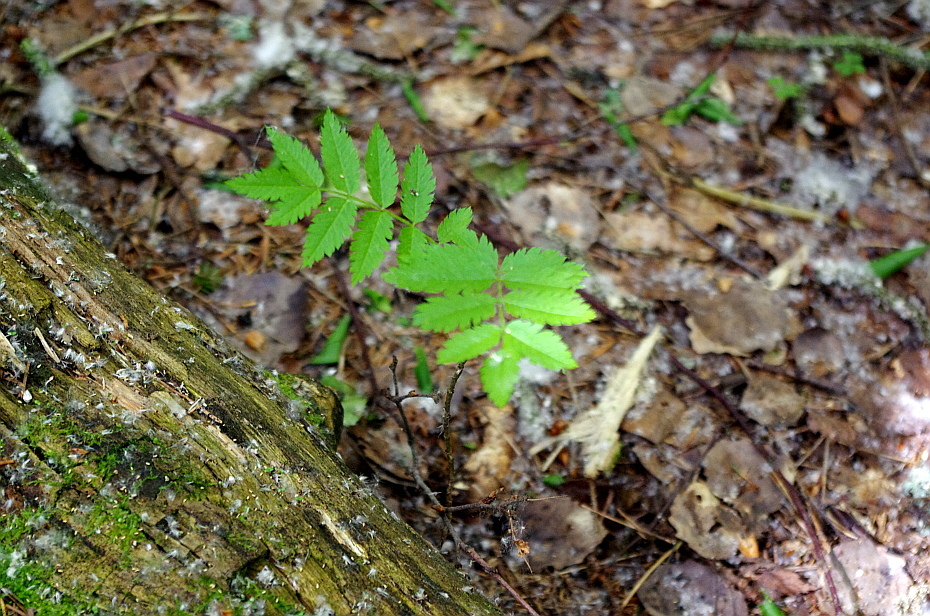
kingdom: Plantae
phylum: Tracheophyta
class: Magnoliopsida
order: Rosales
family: Rosaceae
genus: Sorbus
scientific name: Sorbus aucuparia
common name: Rowan
